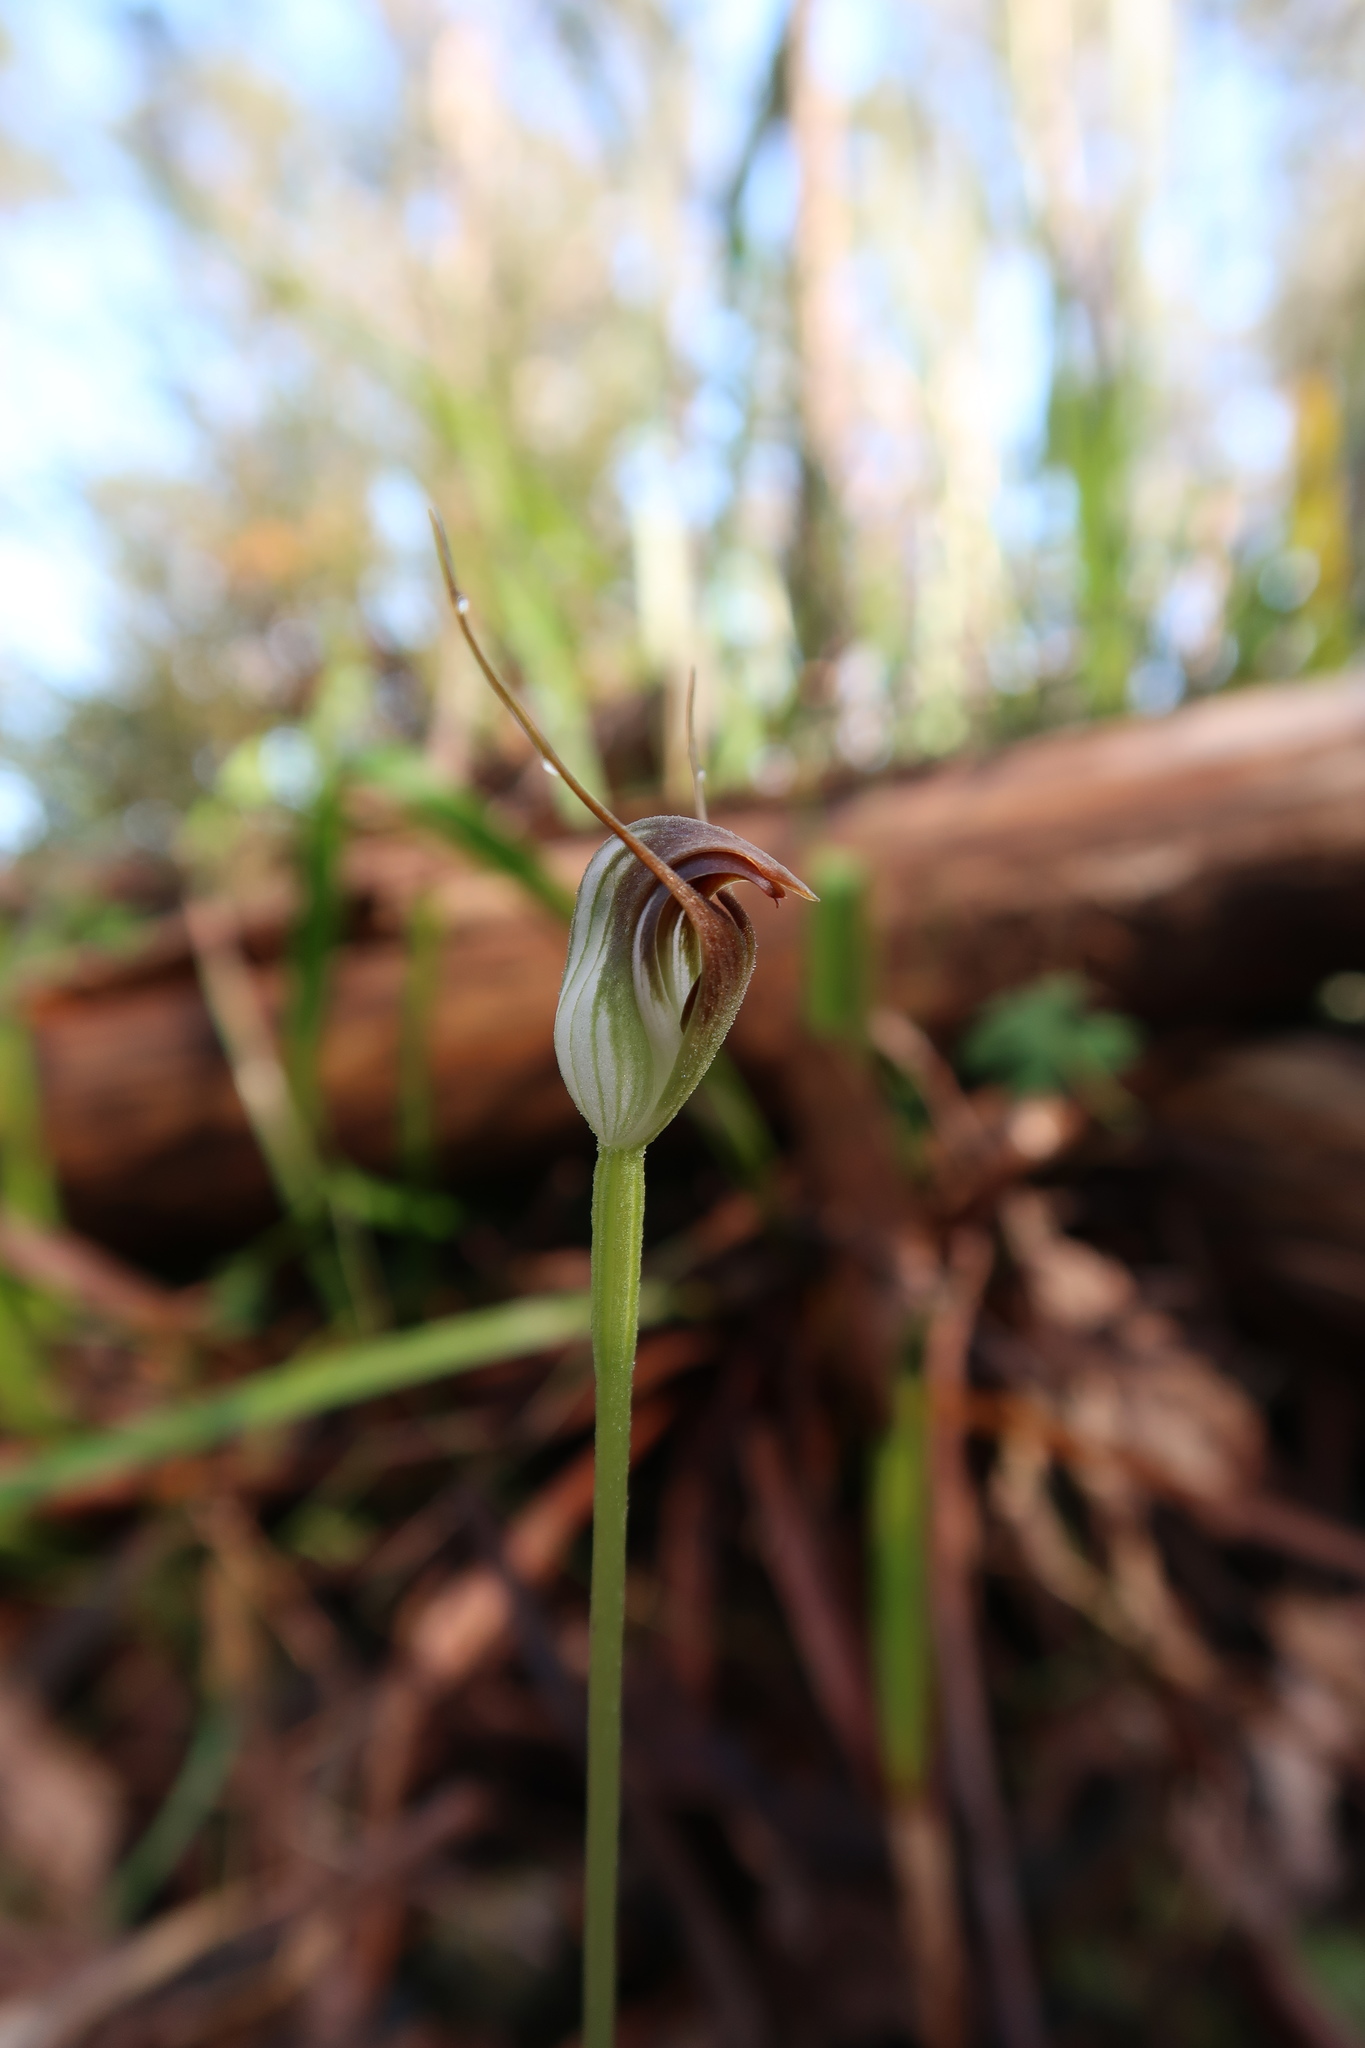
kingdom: Plantae
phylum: Tracheophyta
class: Liliopsida
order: Asparagales
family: Orchidaceae
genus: Pterostylis
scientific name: Pterostylis pedunculata
